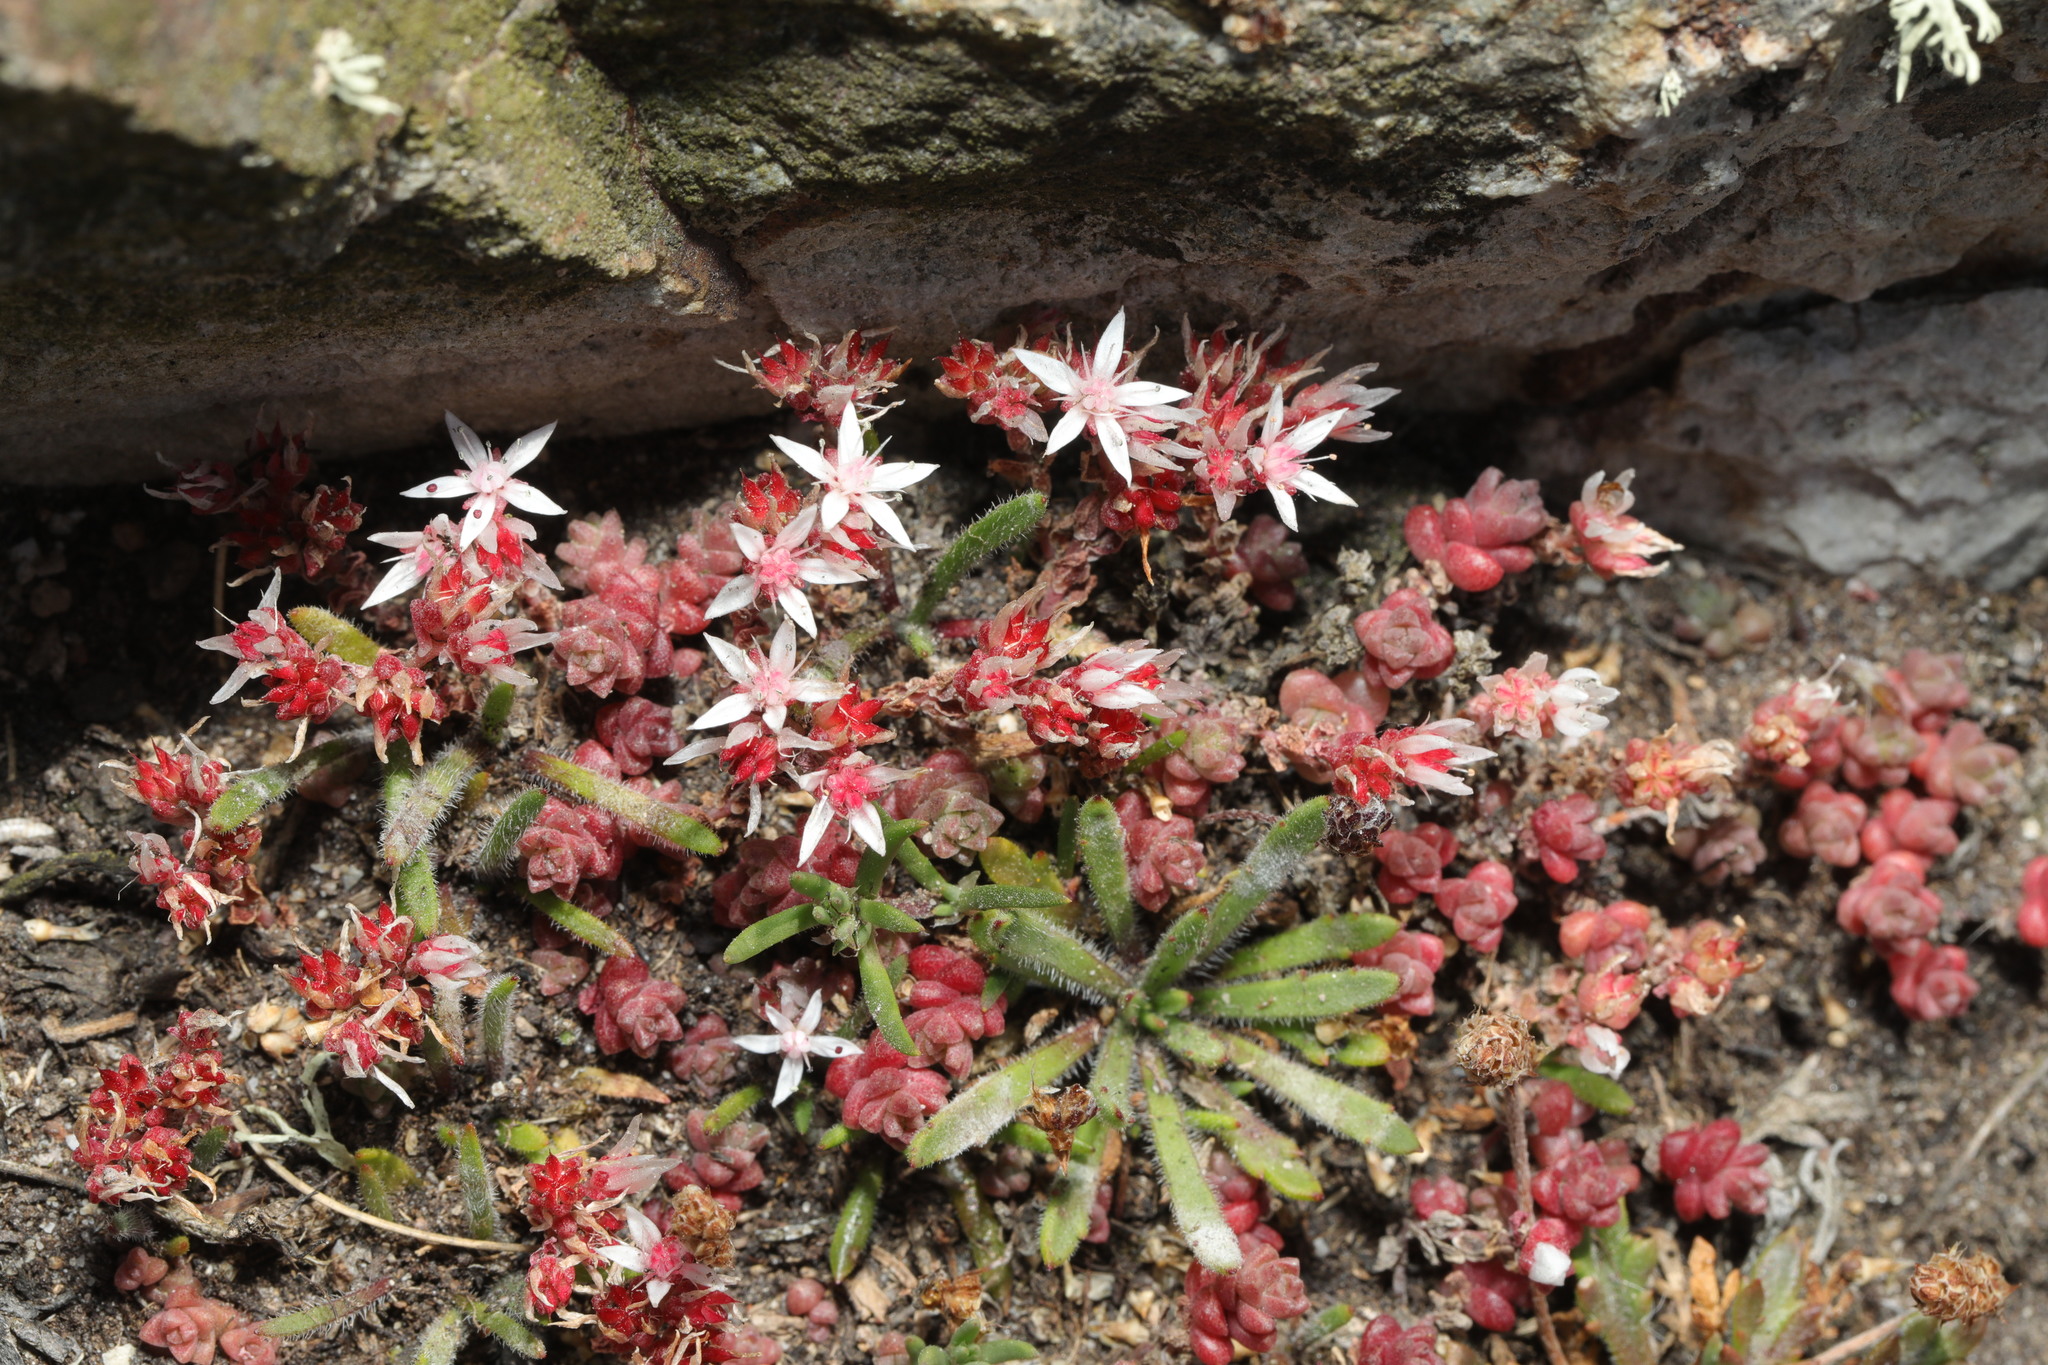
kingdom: Plantae
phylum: Tracheophyta
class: Magnoliopsida
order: Saxifragales
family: Crassulaceae
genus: Sedum
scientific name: Sedum anglicum
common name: English stonecrop
